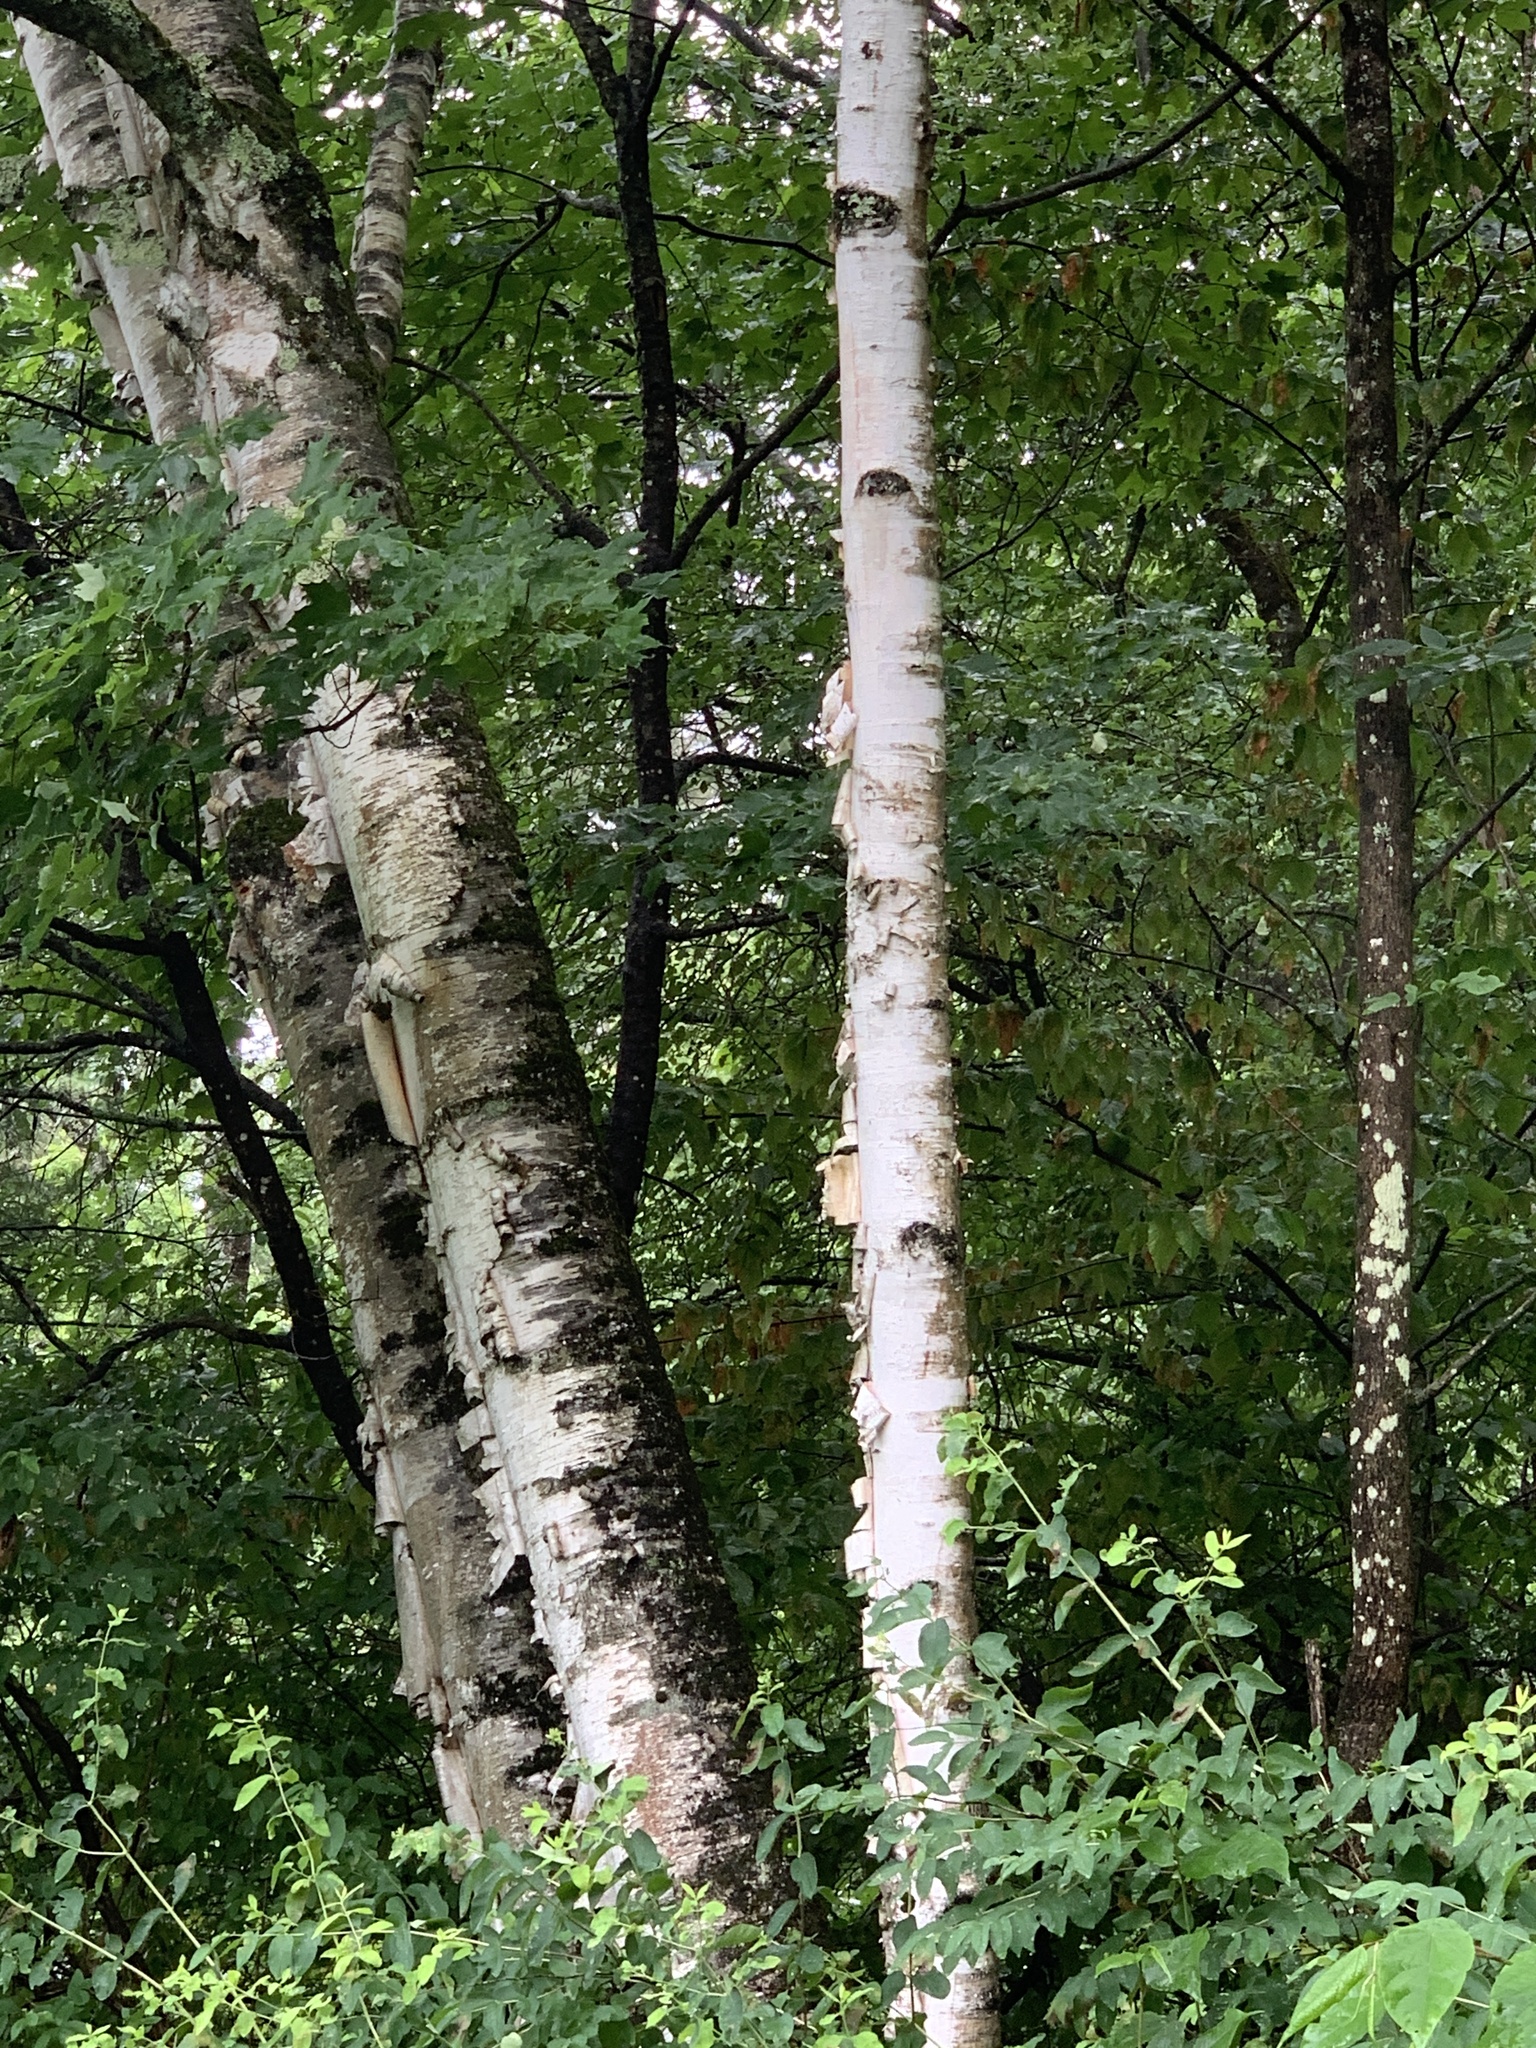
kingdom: Plantae
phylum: Tracheophyta
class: Magnoliopsida
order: Fagales
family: Betulaceae
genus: Betula
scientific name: Betula papyrifera
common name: Paper birch
